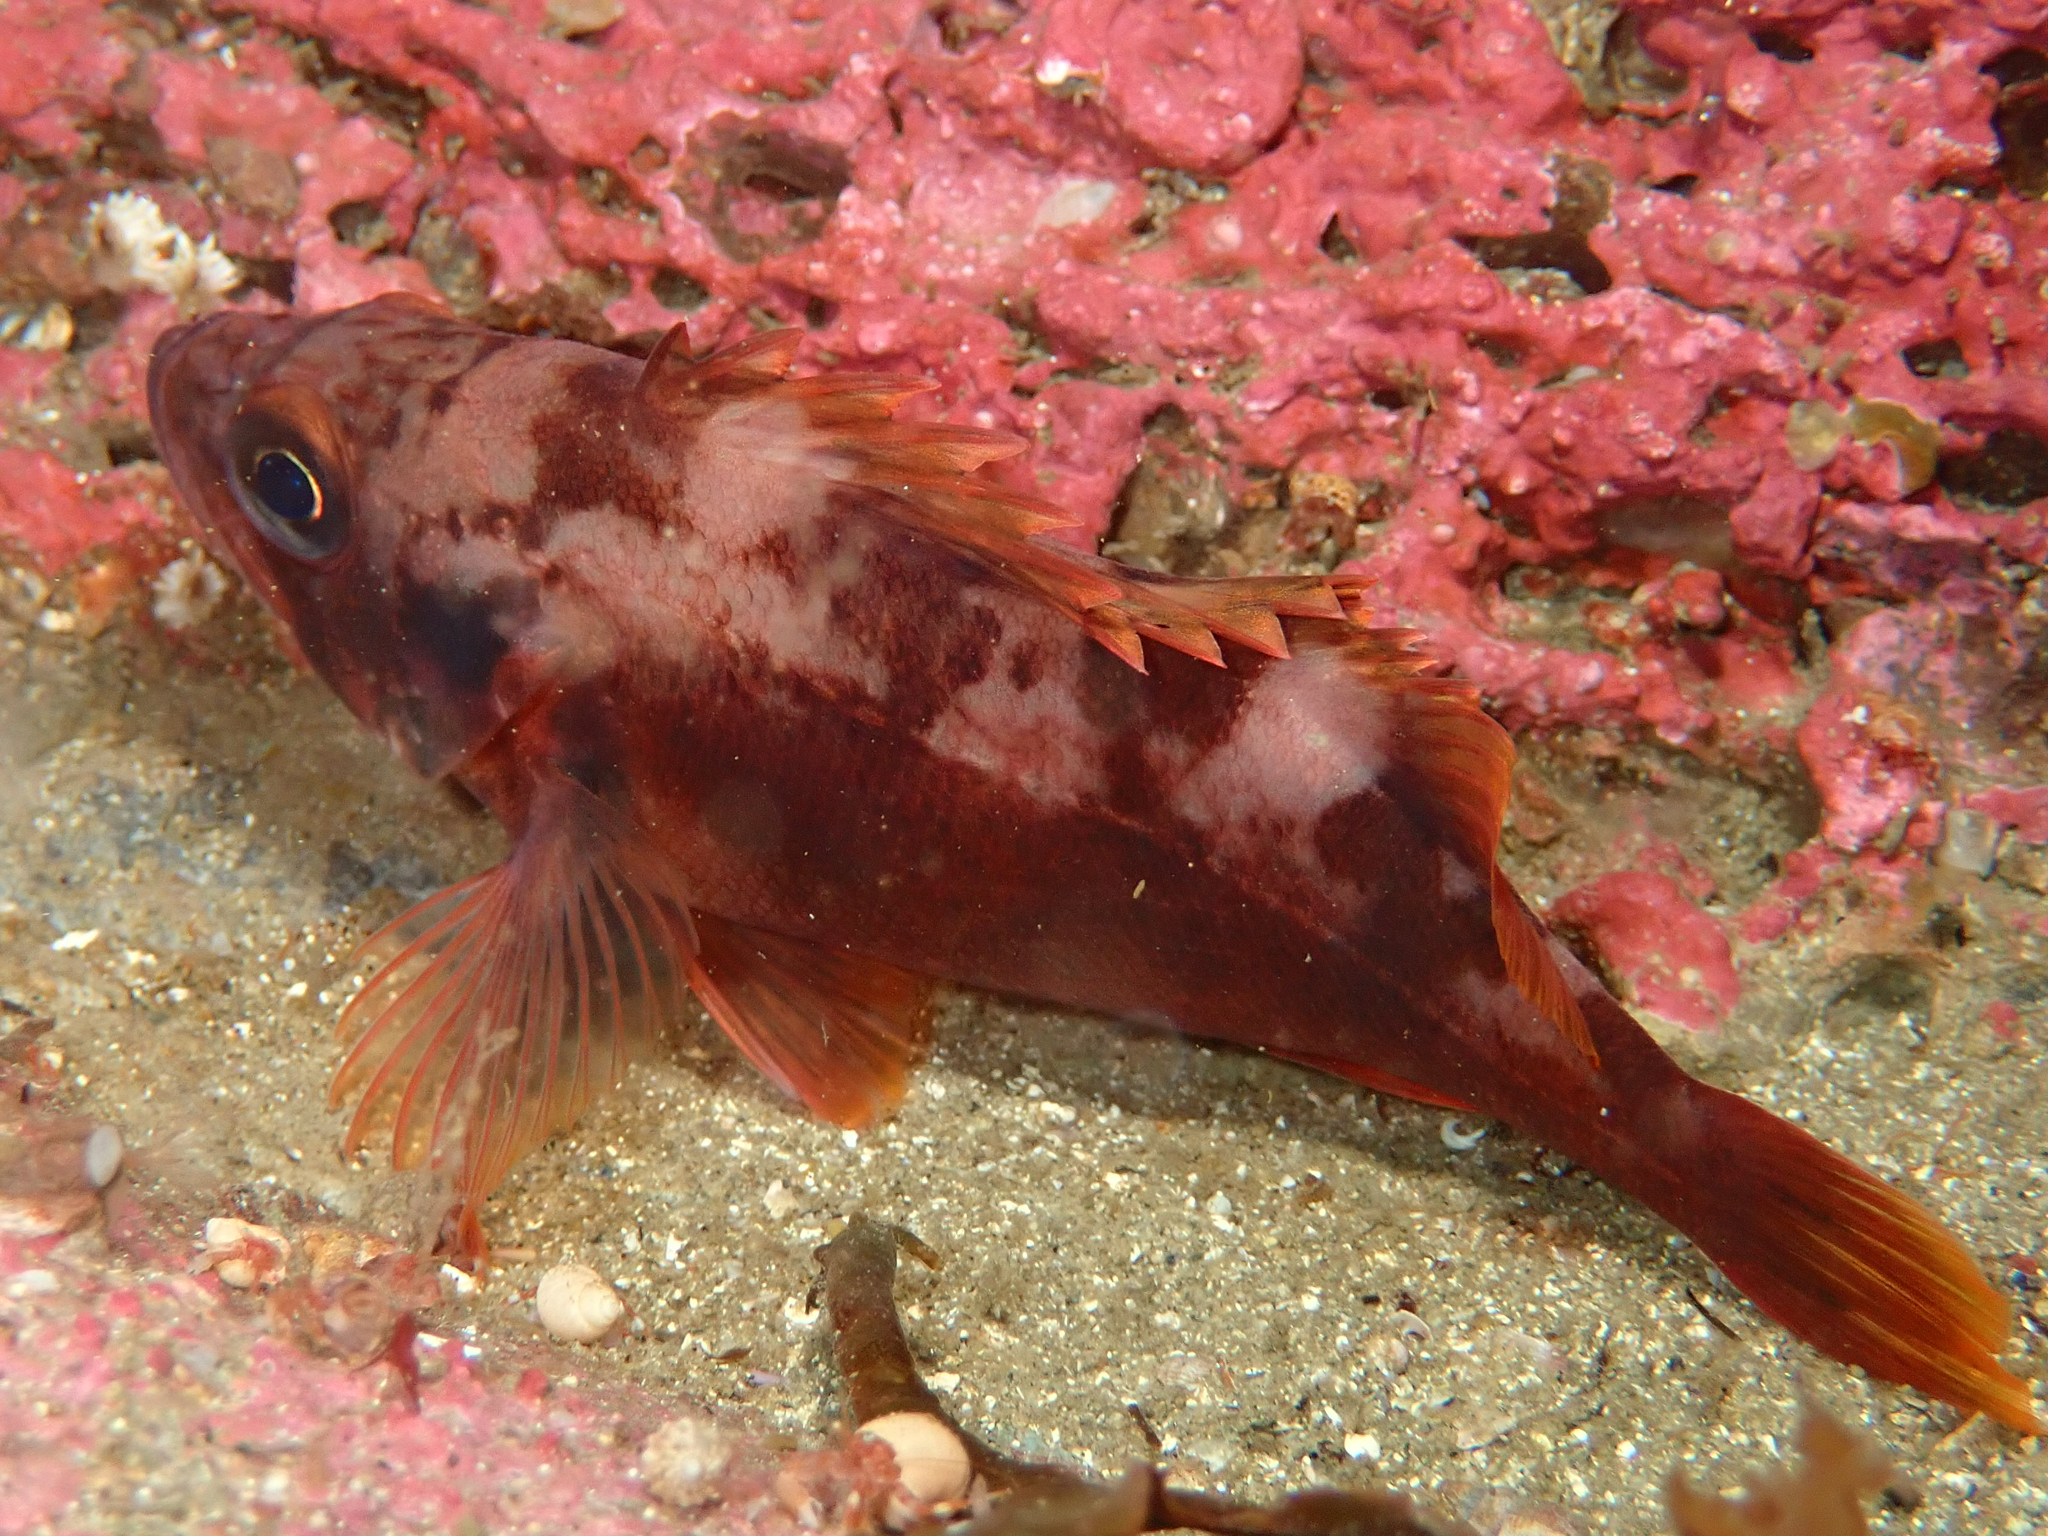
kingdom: Animalia
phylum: Chordata
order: Scorpaeniformes
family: Sebastidae
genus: Sebastes
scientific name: Sebastes viviparus
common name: Norway haddock
